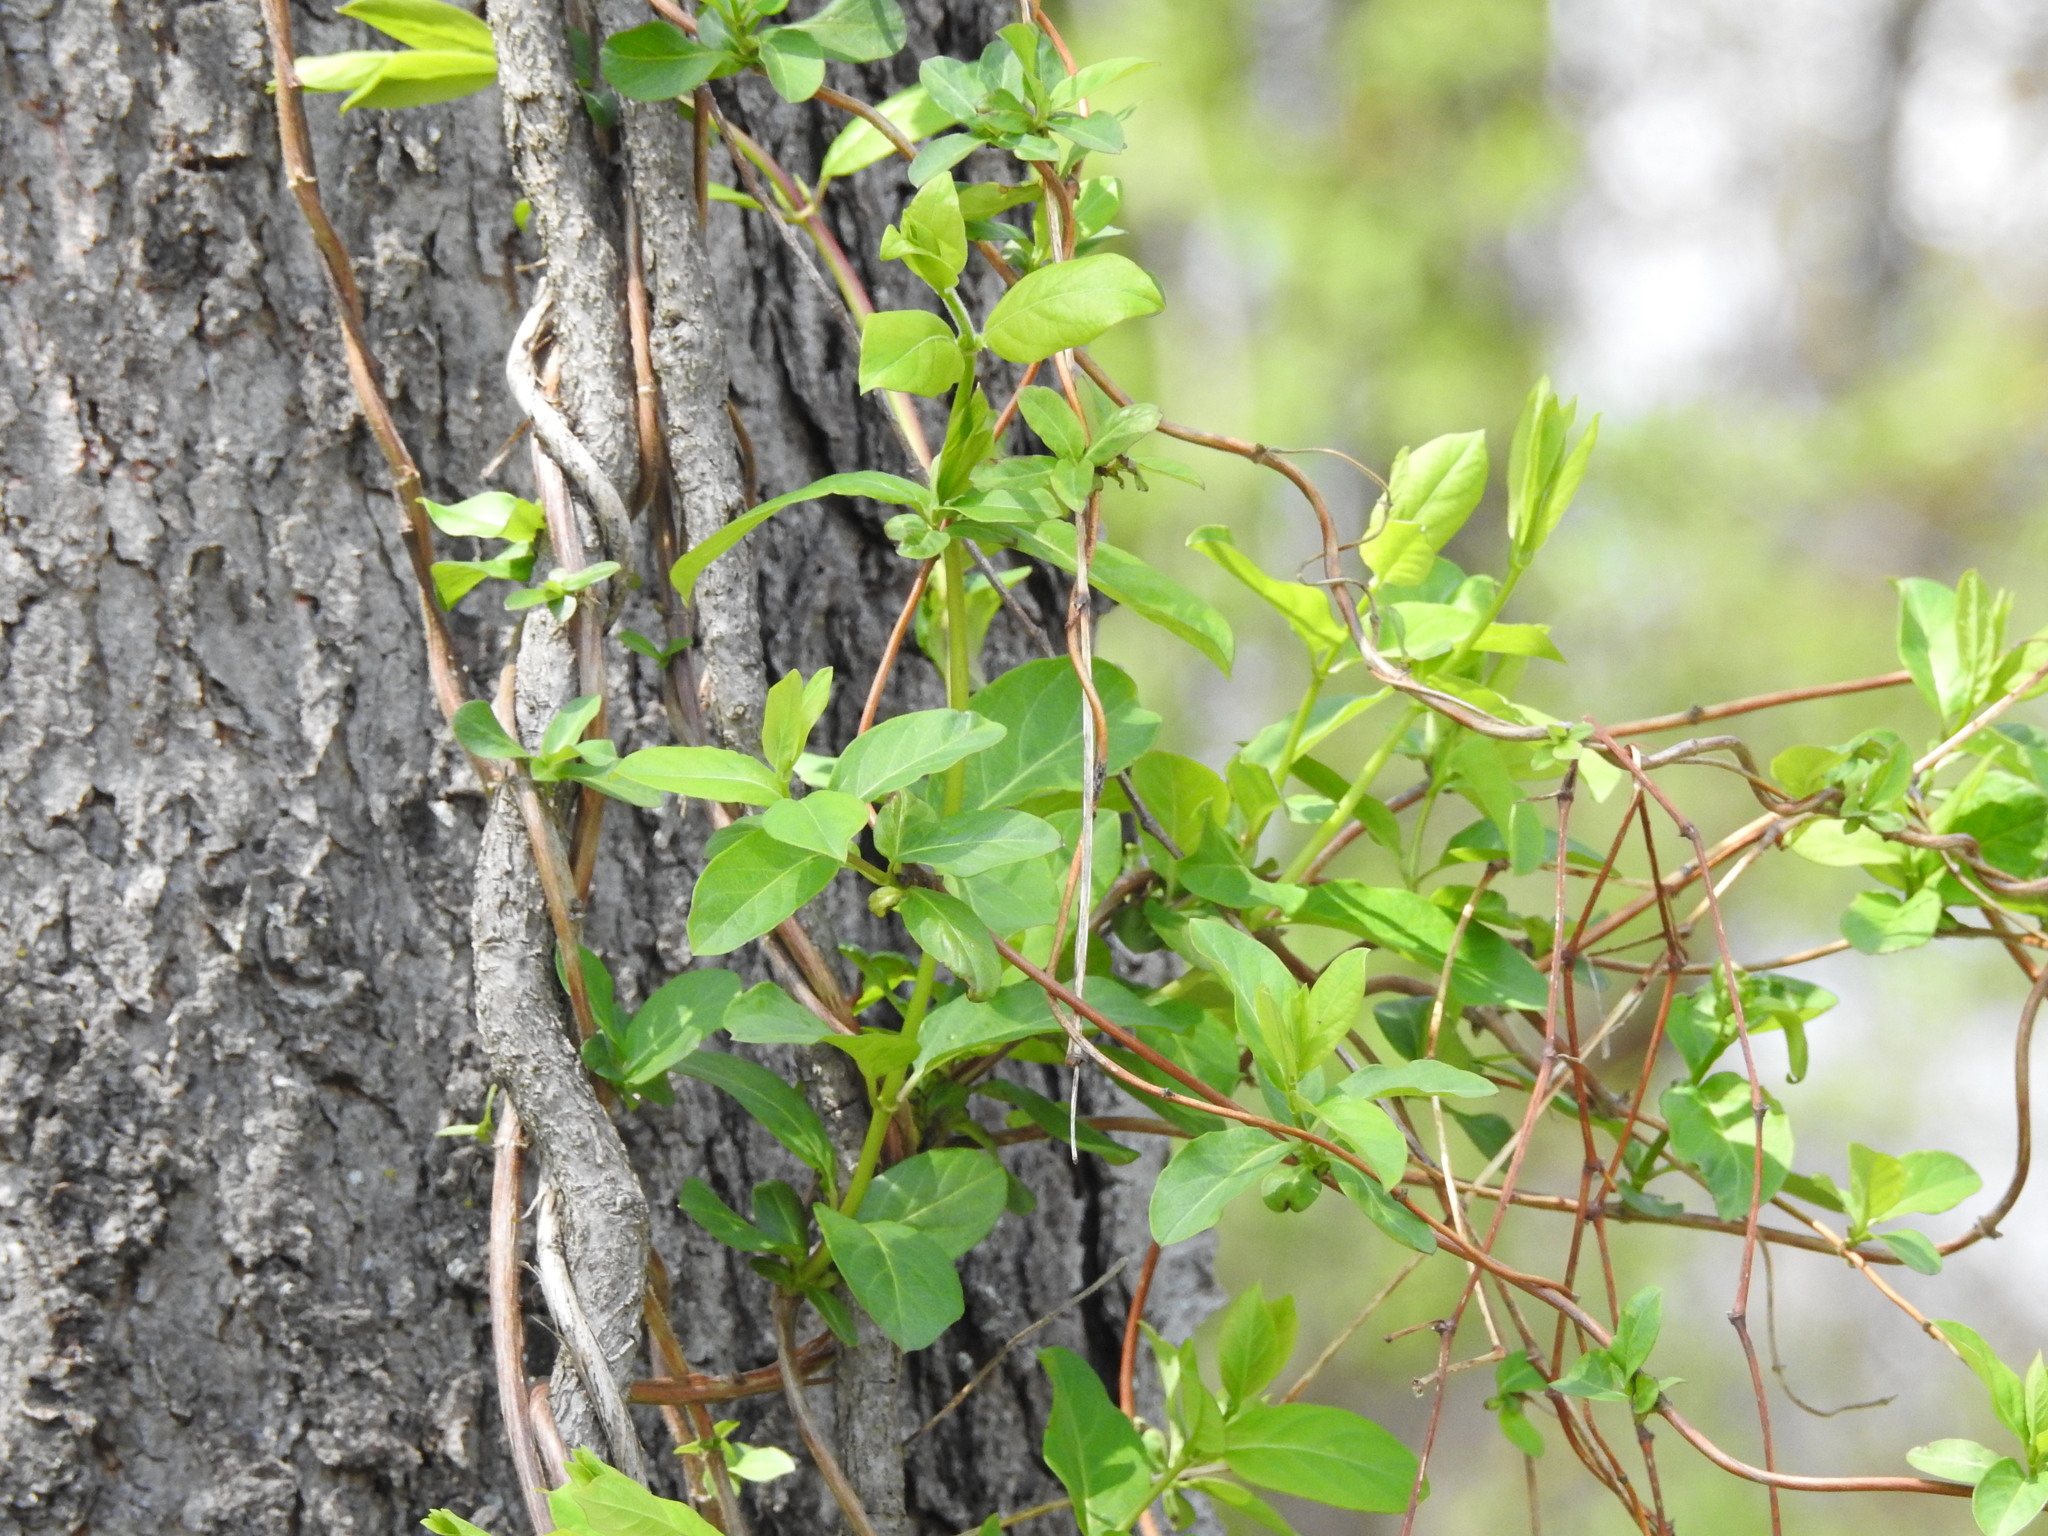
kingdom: Plantae
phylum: Tracheophyta
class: Magnoliopsida
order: Dipsacales
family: Caprifoliaceae
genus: Lonicera
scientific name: Lonicera japonica
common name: Japanese honeysuckle
